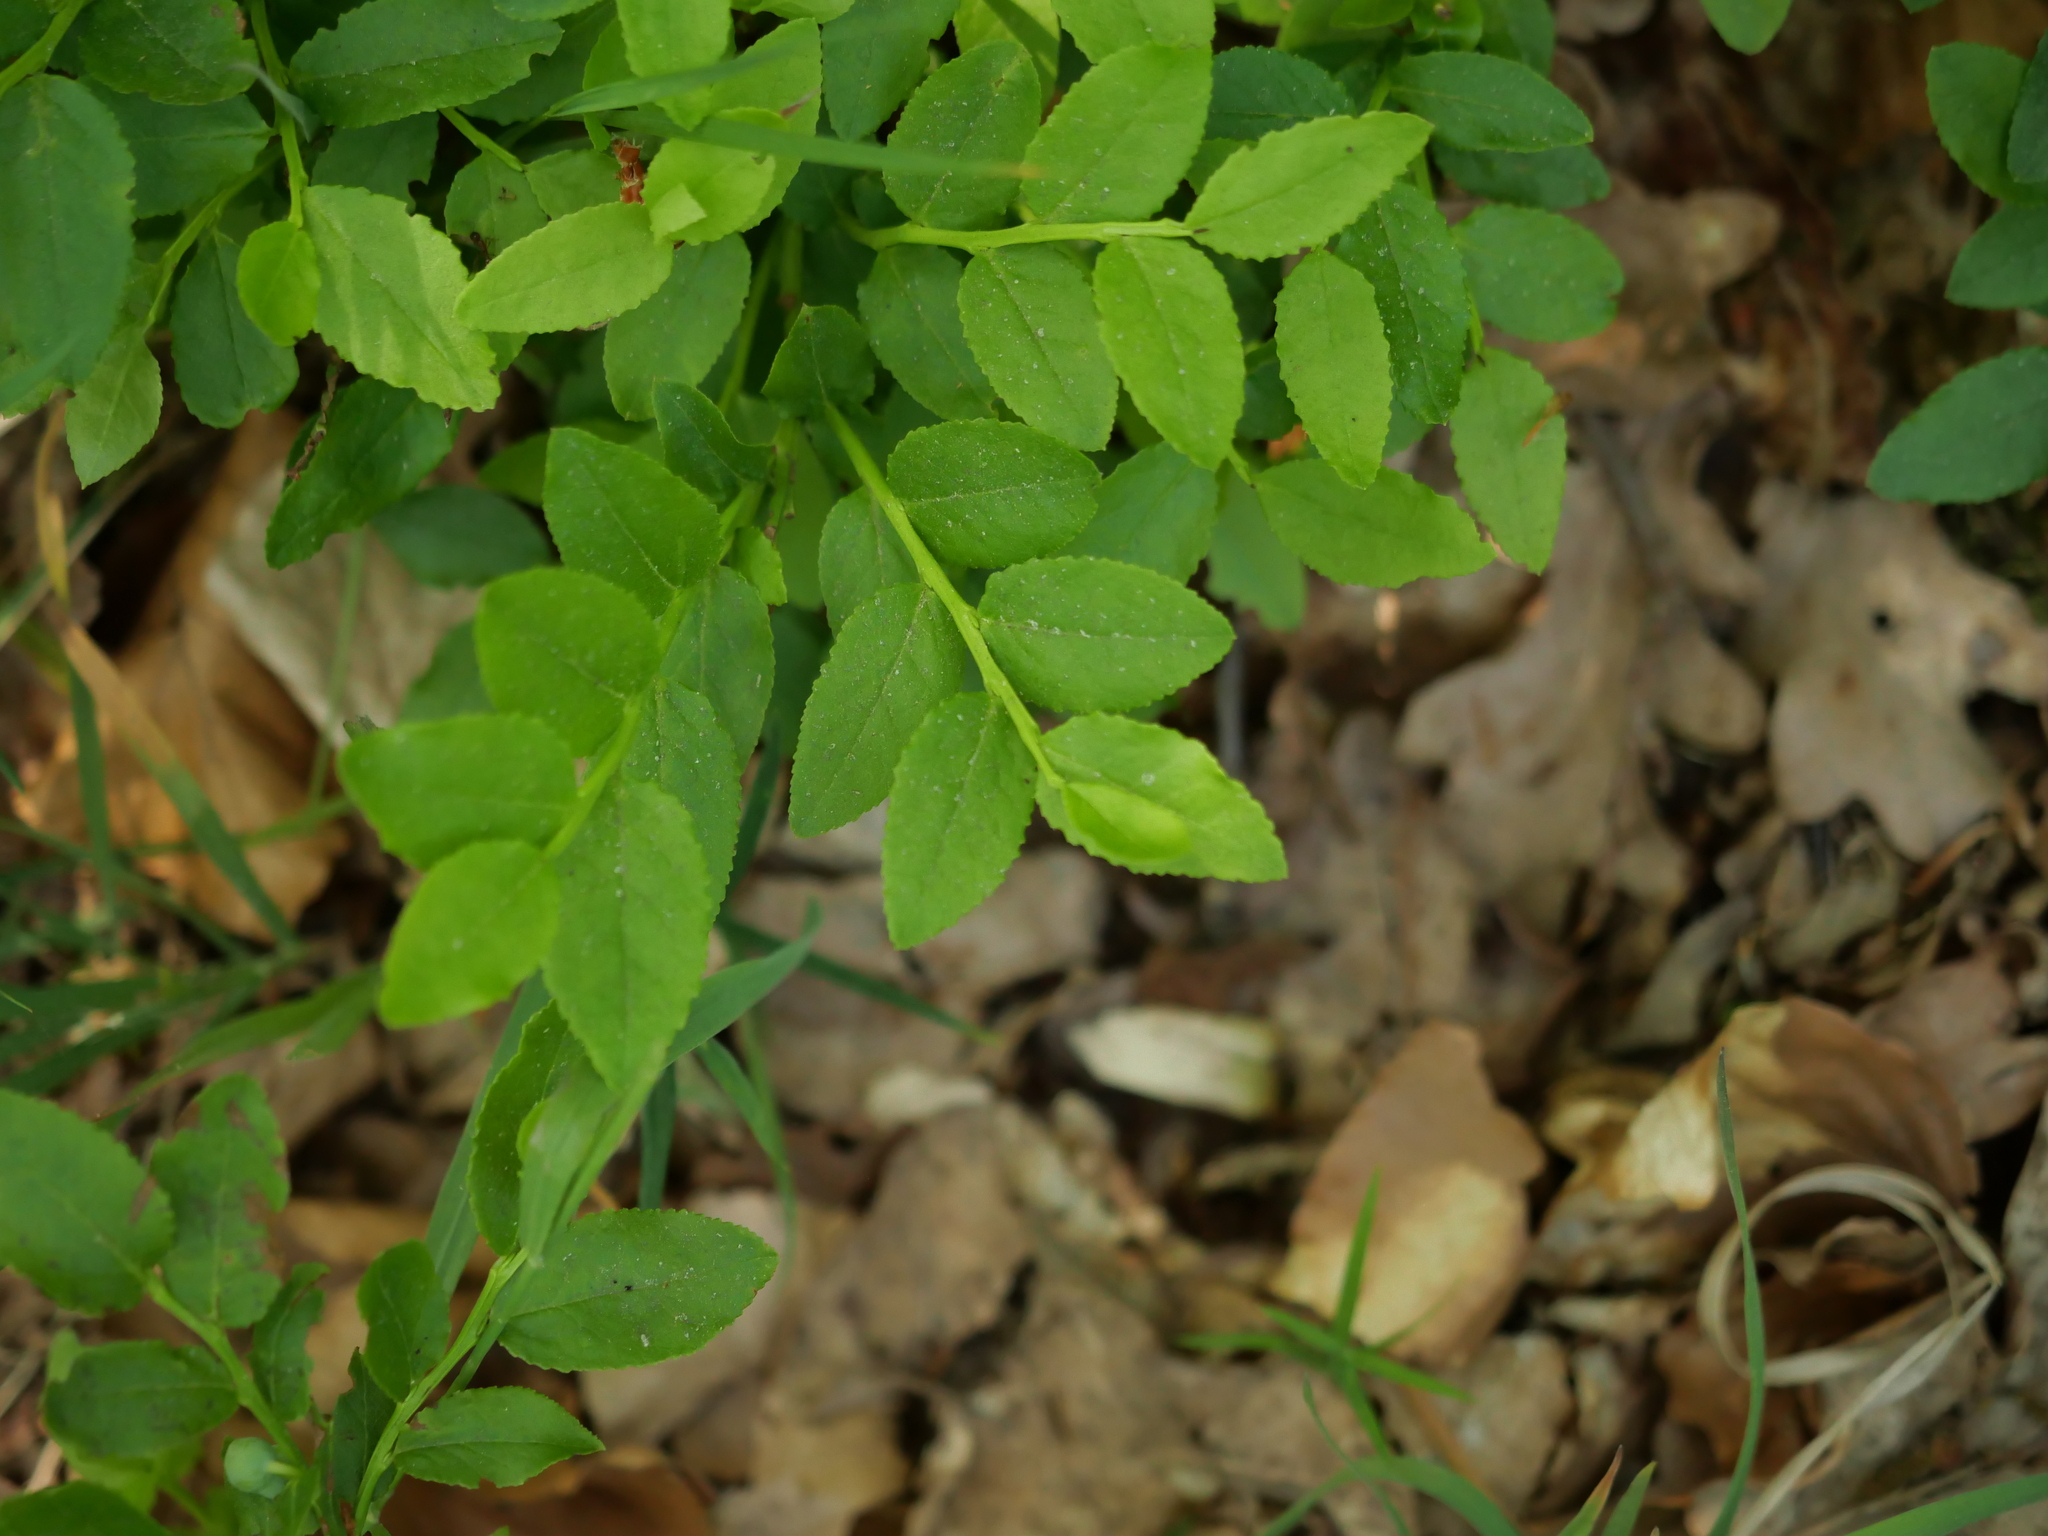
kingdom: Plantae
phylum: Tracheophyta
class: Magnoliopsida
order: Ericales
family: Ericaceae
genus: Vaccinium
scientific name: Vaccinium myrtillus
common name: Bilberry
